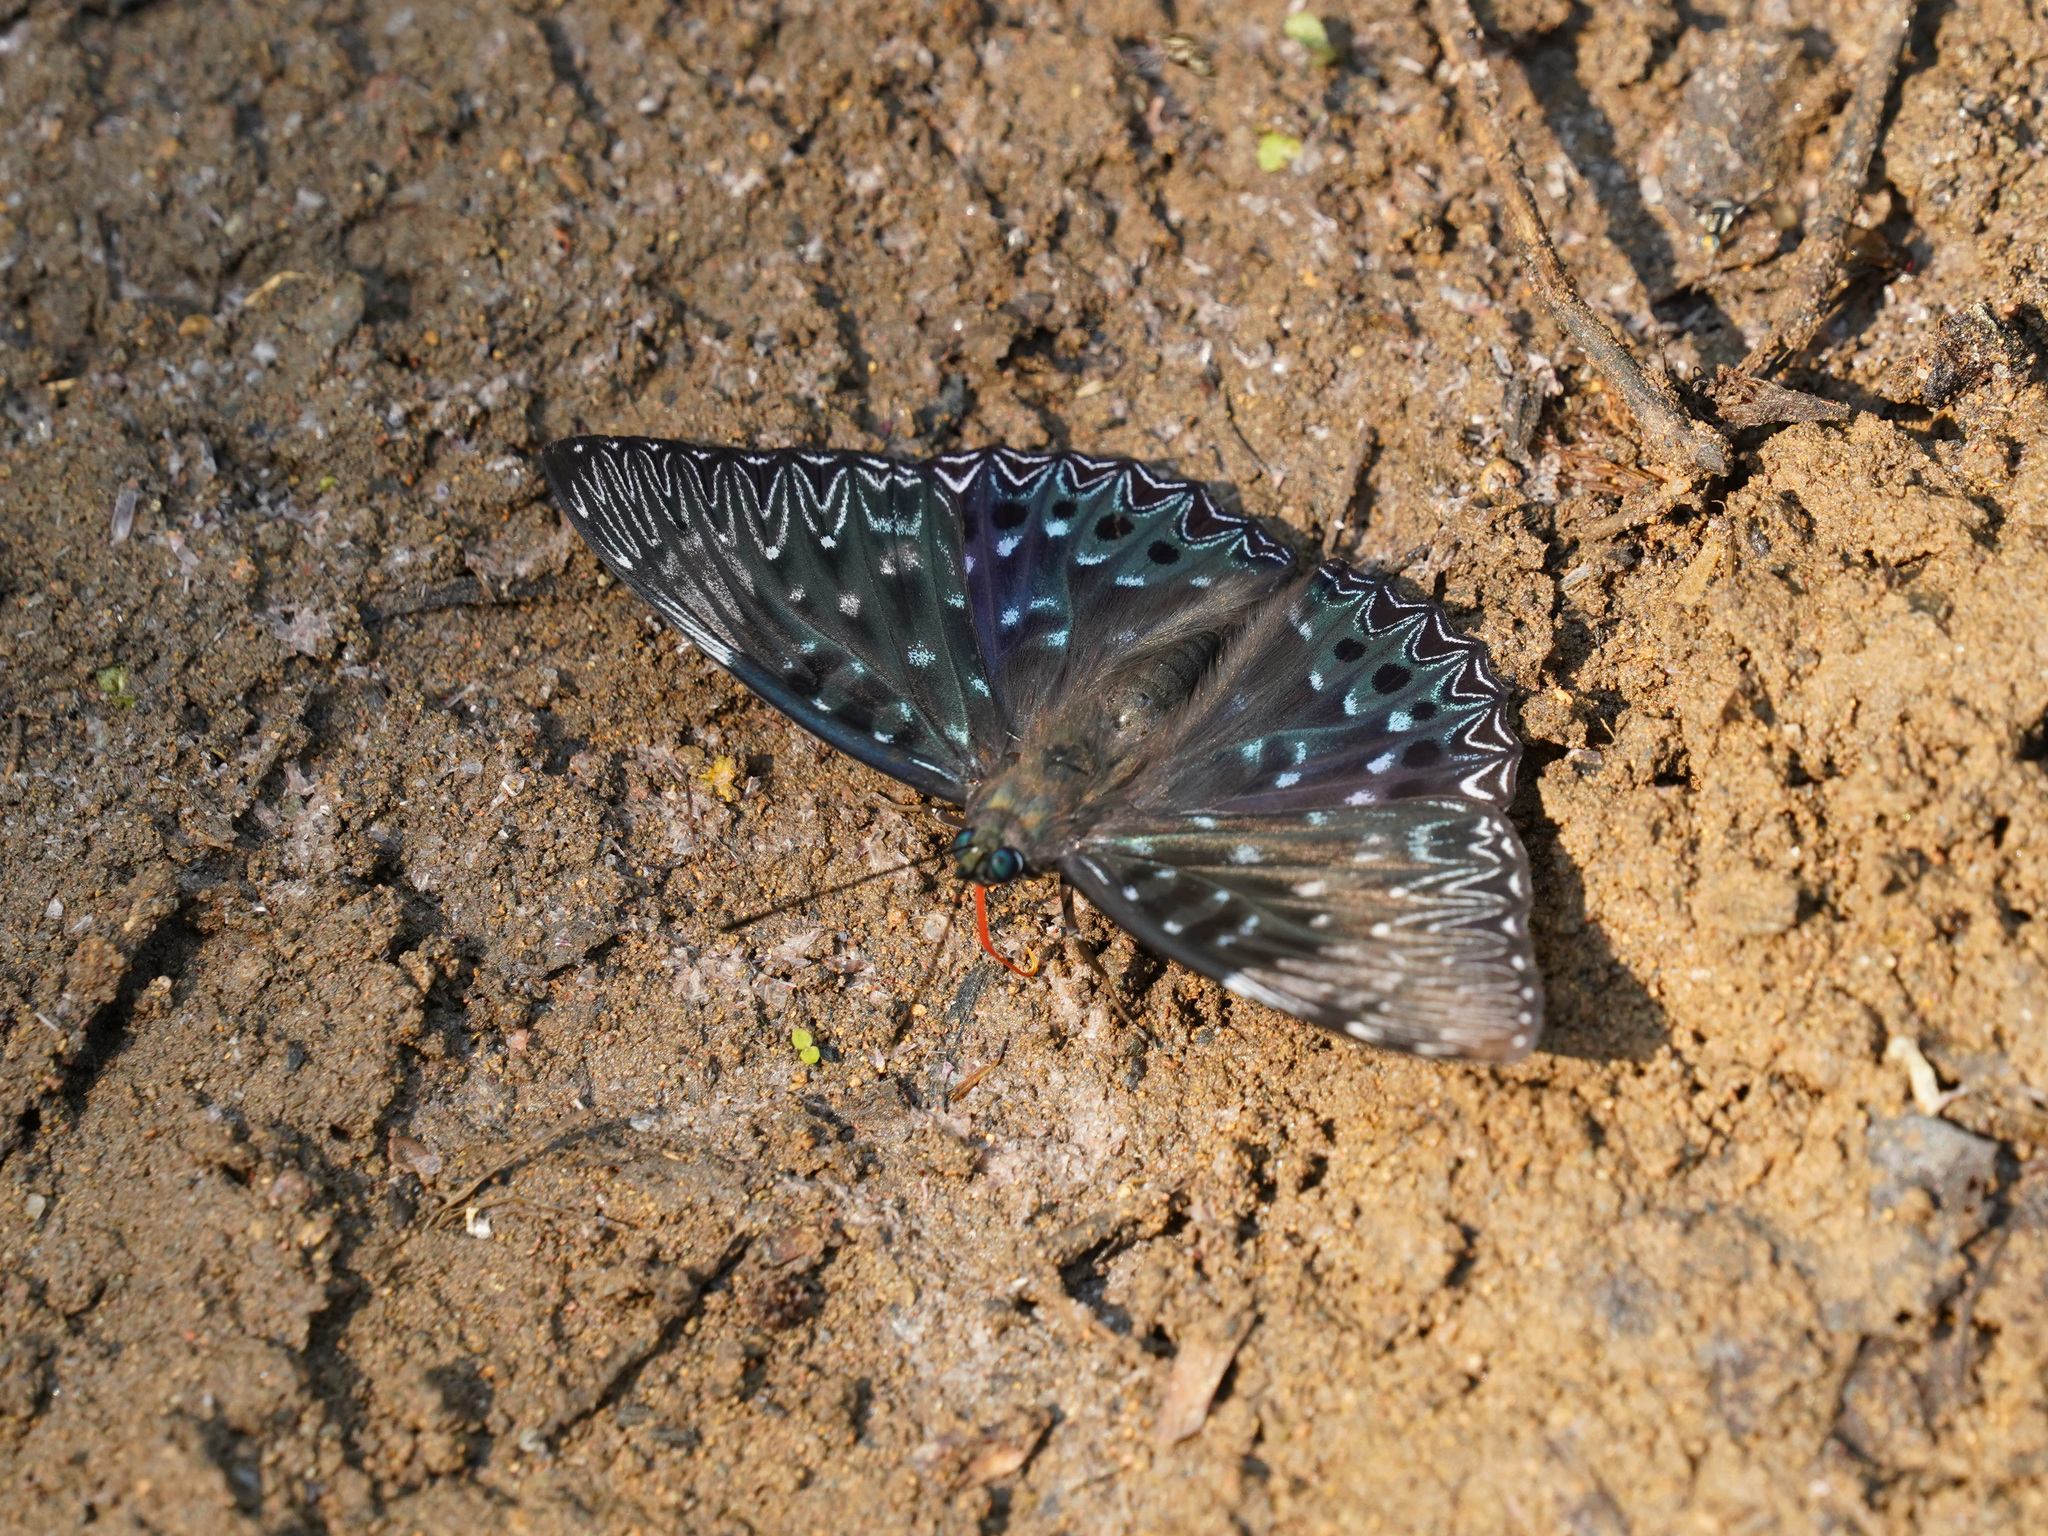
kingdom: Animalia
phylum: Arthropoda
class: Insecta
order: Lepidoptera
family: Nymphalidae
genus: Dichorragia
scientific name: Dichorragia nesimachus
